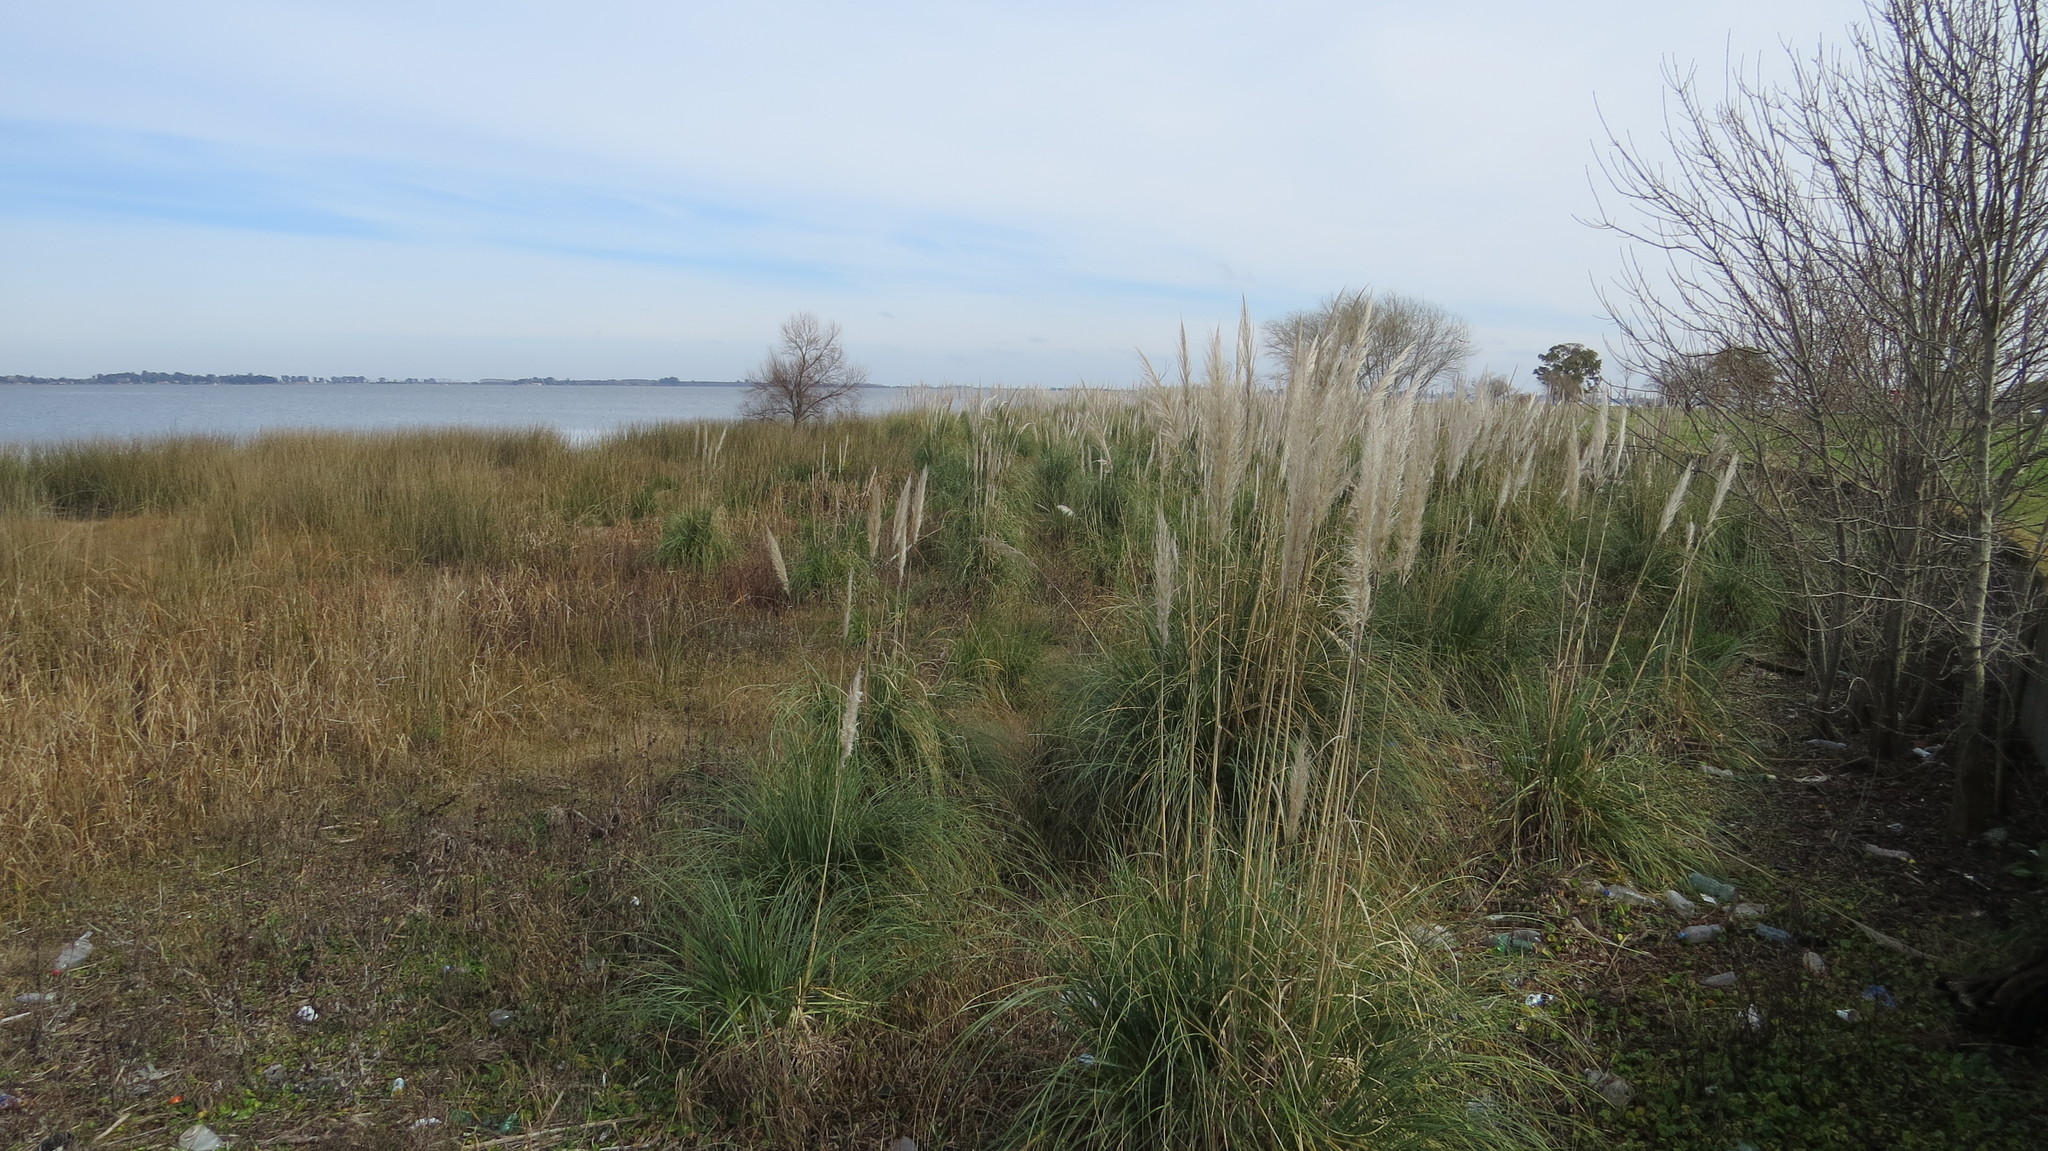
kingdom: Plantae
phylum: Tracheophyta
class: Liliopsida
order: Poales
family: Poaceae
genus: Cortaderia
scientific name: Cortaderia selloana
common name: Uruguayan pampas grass
